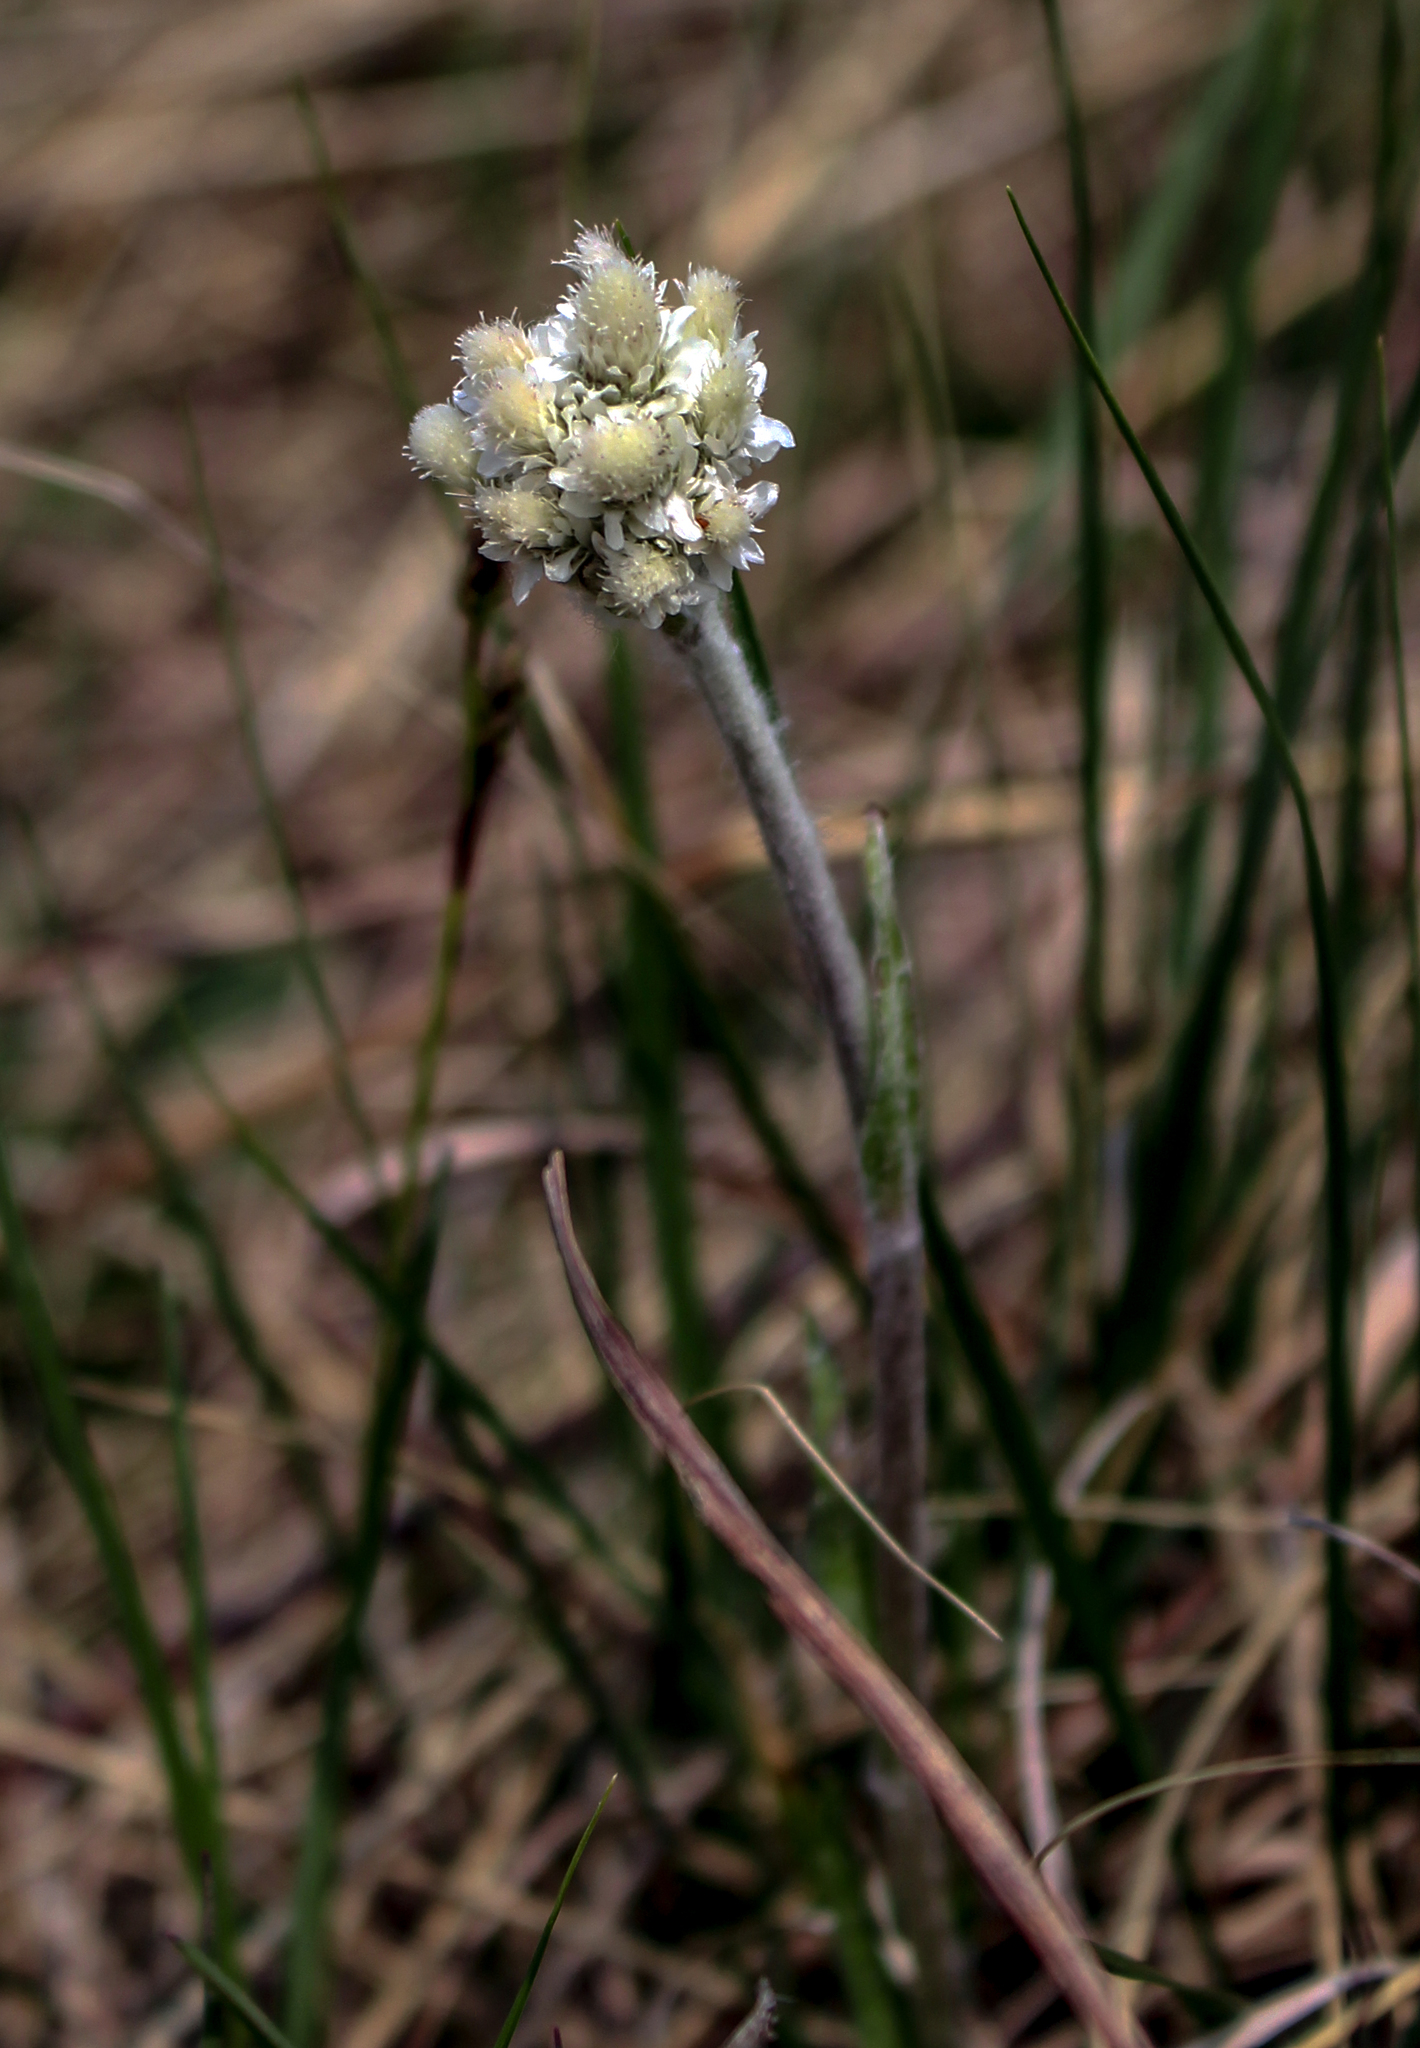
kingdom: Plantae
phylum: Tracheophyta
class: Magnoliopsida
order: Asterales
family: Asteraceae
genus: Antennaria
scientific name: Antennaria neglecta
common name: Field pussytoes
